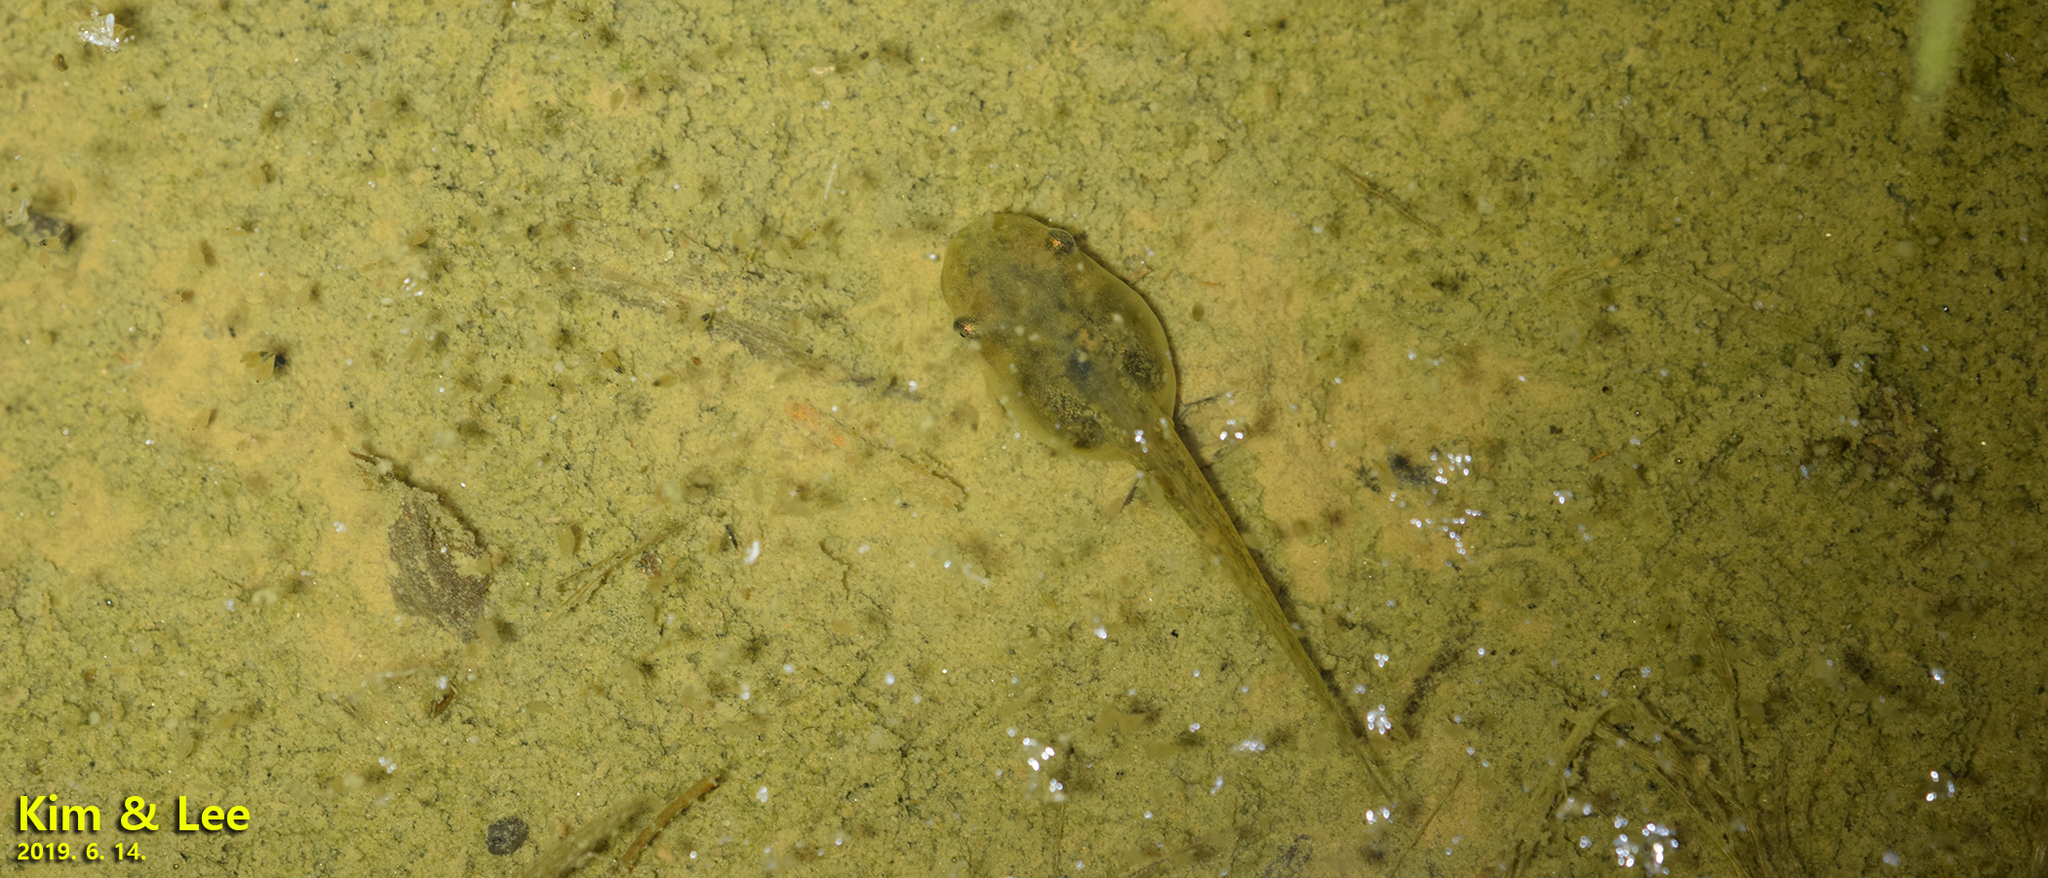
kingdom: Animalia
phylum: Chordata
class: Amphibia
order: Anura
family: Hylidae
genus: Dryophytes
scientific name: Dryophytes japonicus
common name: Japanese treefrog
